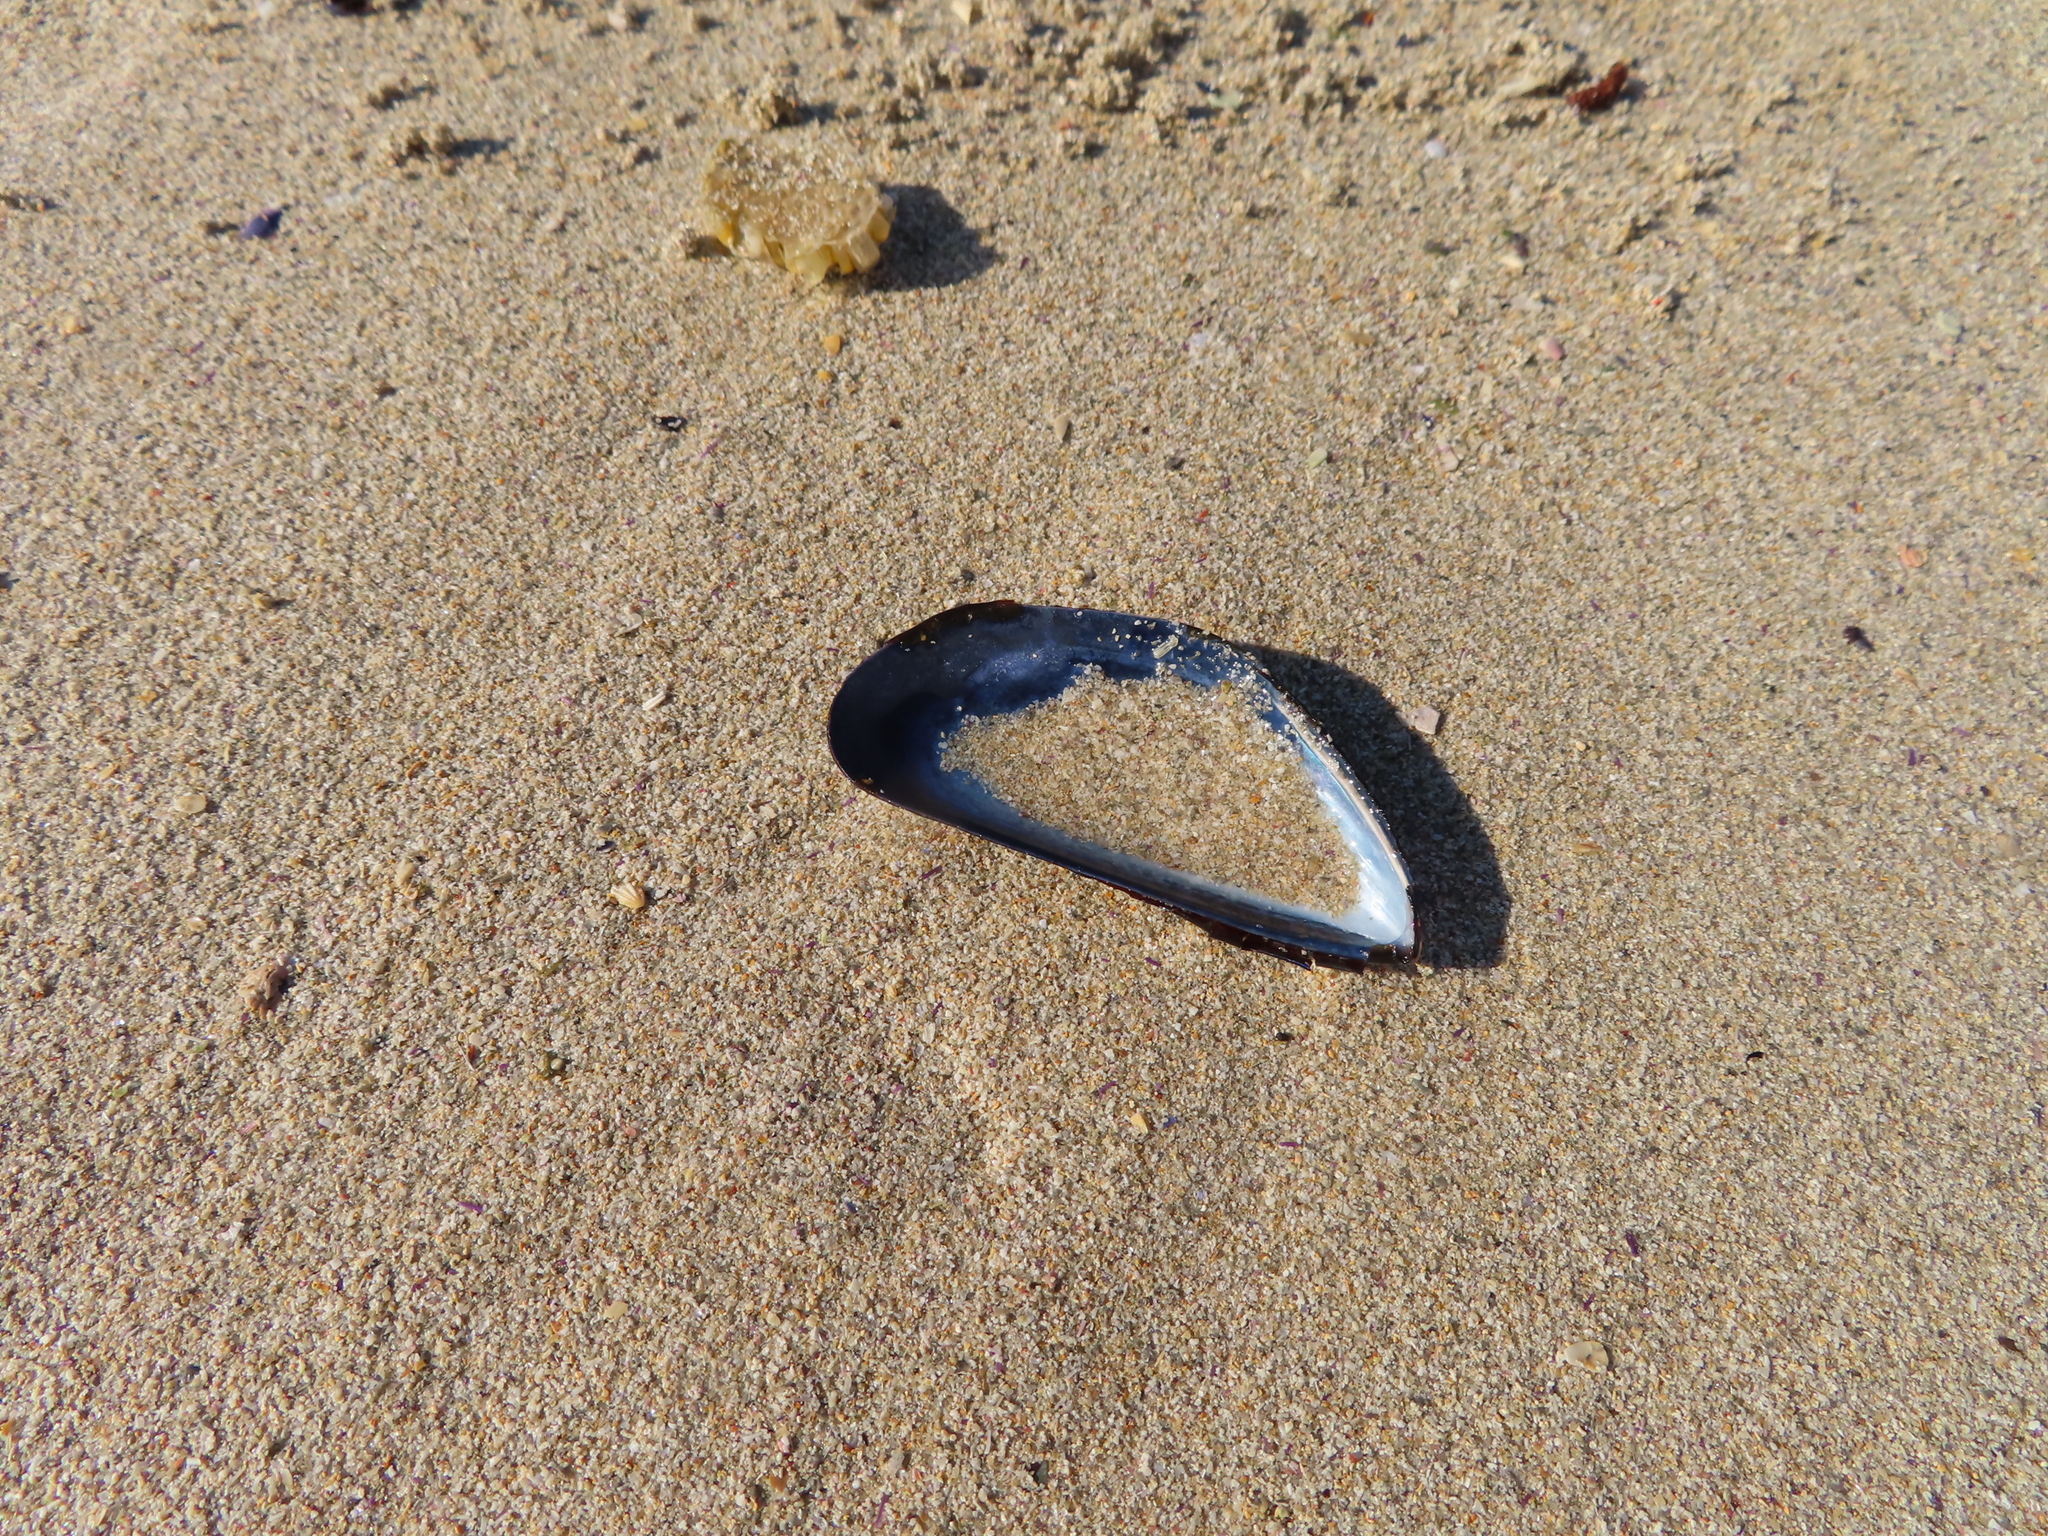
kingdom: Animalia
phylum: Mollusca
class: Bivalvia
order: Mytilida
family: Mytilidae
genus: Mytilus
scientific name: Mytilus galloprovincialis
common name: Mediterranean mussel
